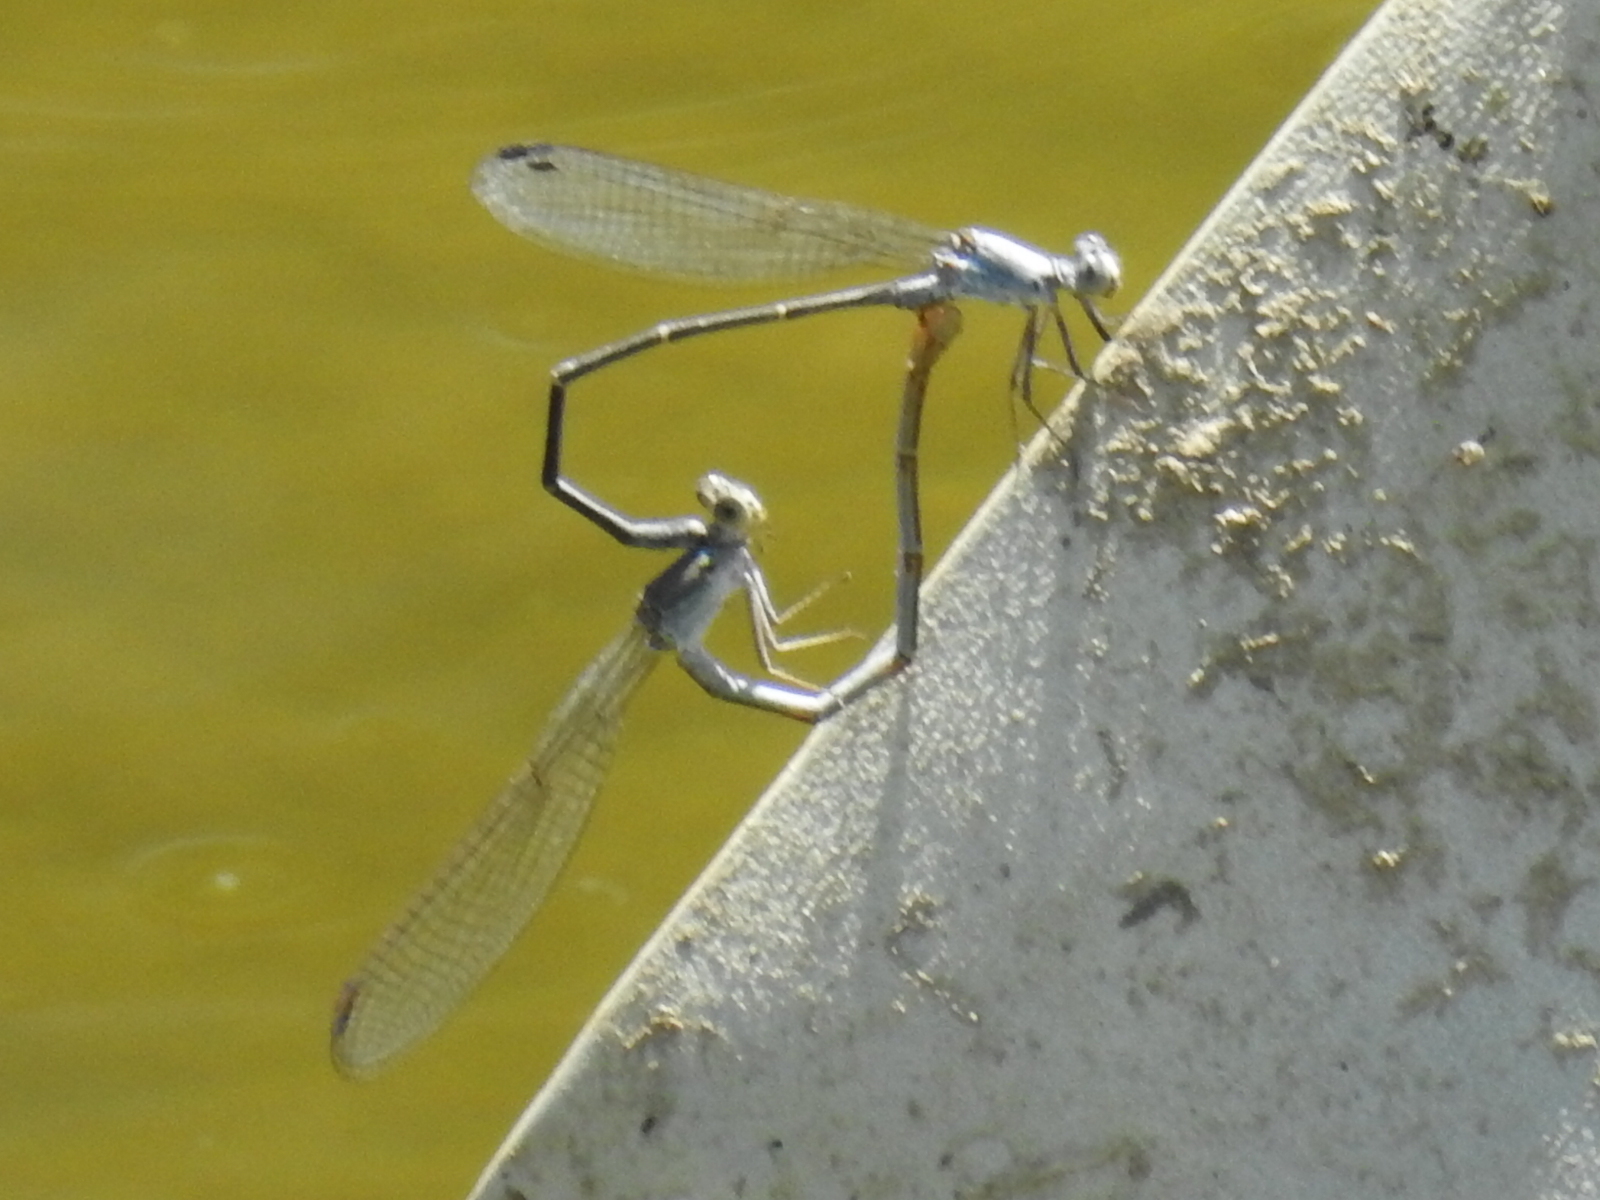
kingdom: Animalia
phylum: Arthropoda
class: Insecta
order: Odonata
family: Coenagrionidae
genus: Argia
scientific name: Argia moesta
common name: Powdered dancer
